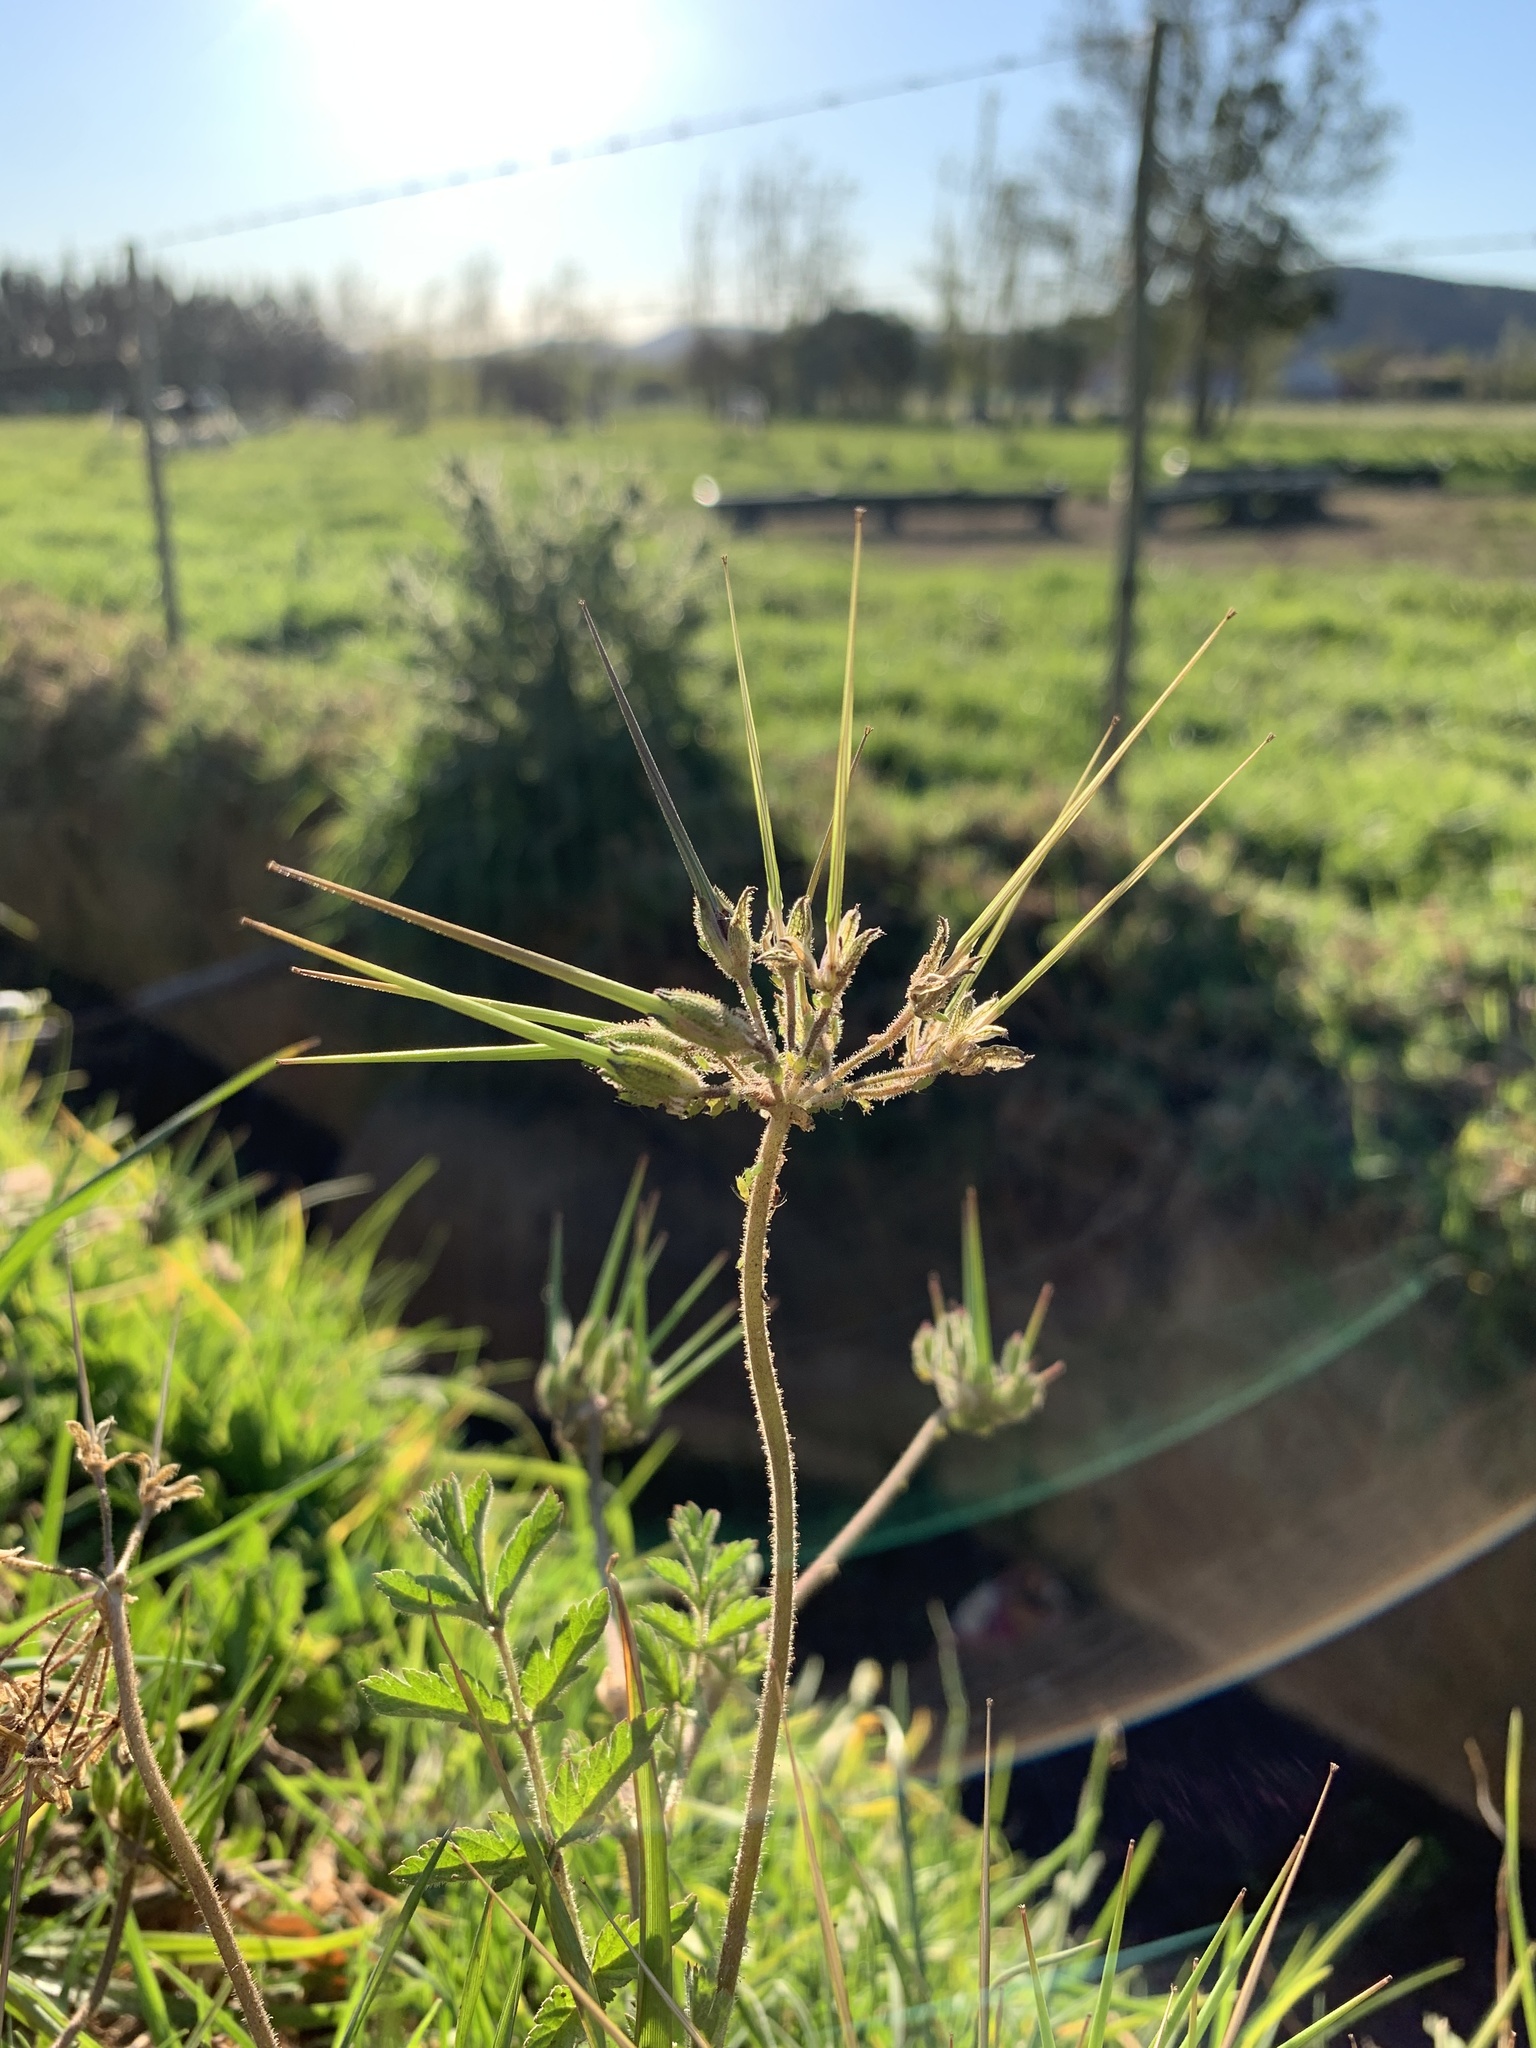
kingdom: Plantae
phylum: Tracheophyta
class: Magnoliopsida
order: Geraniales
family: Geraniaceae
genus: Erodium
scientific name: Erodium moschatum
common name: Musk stork's-bill
